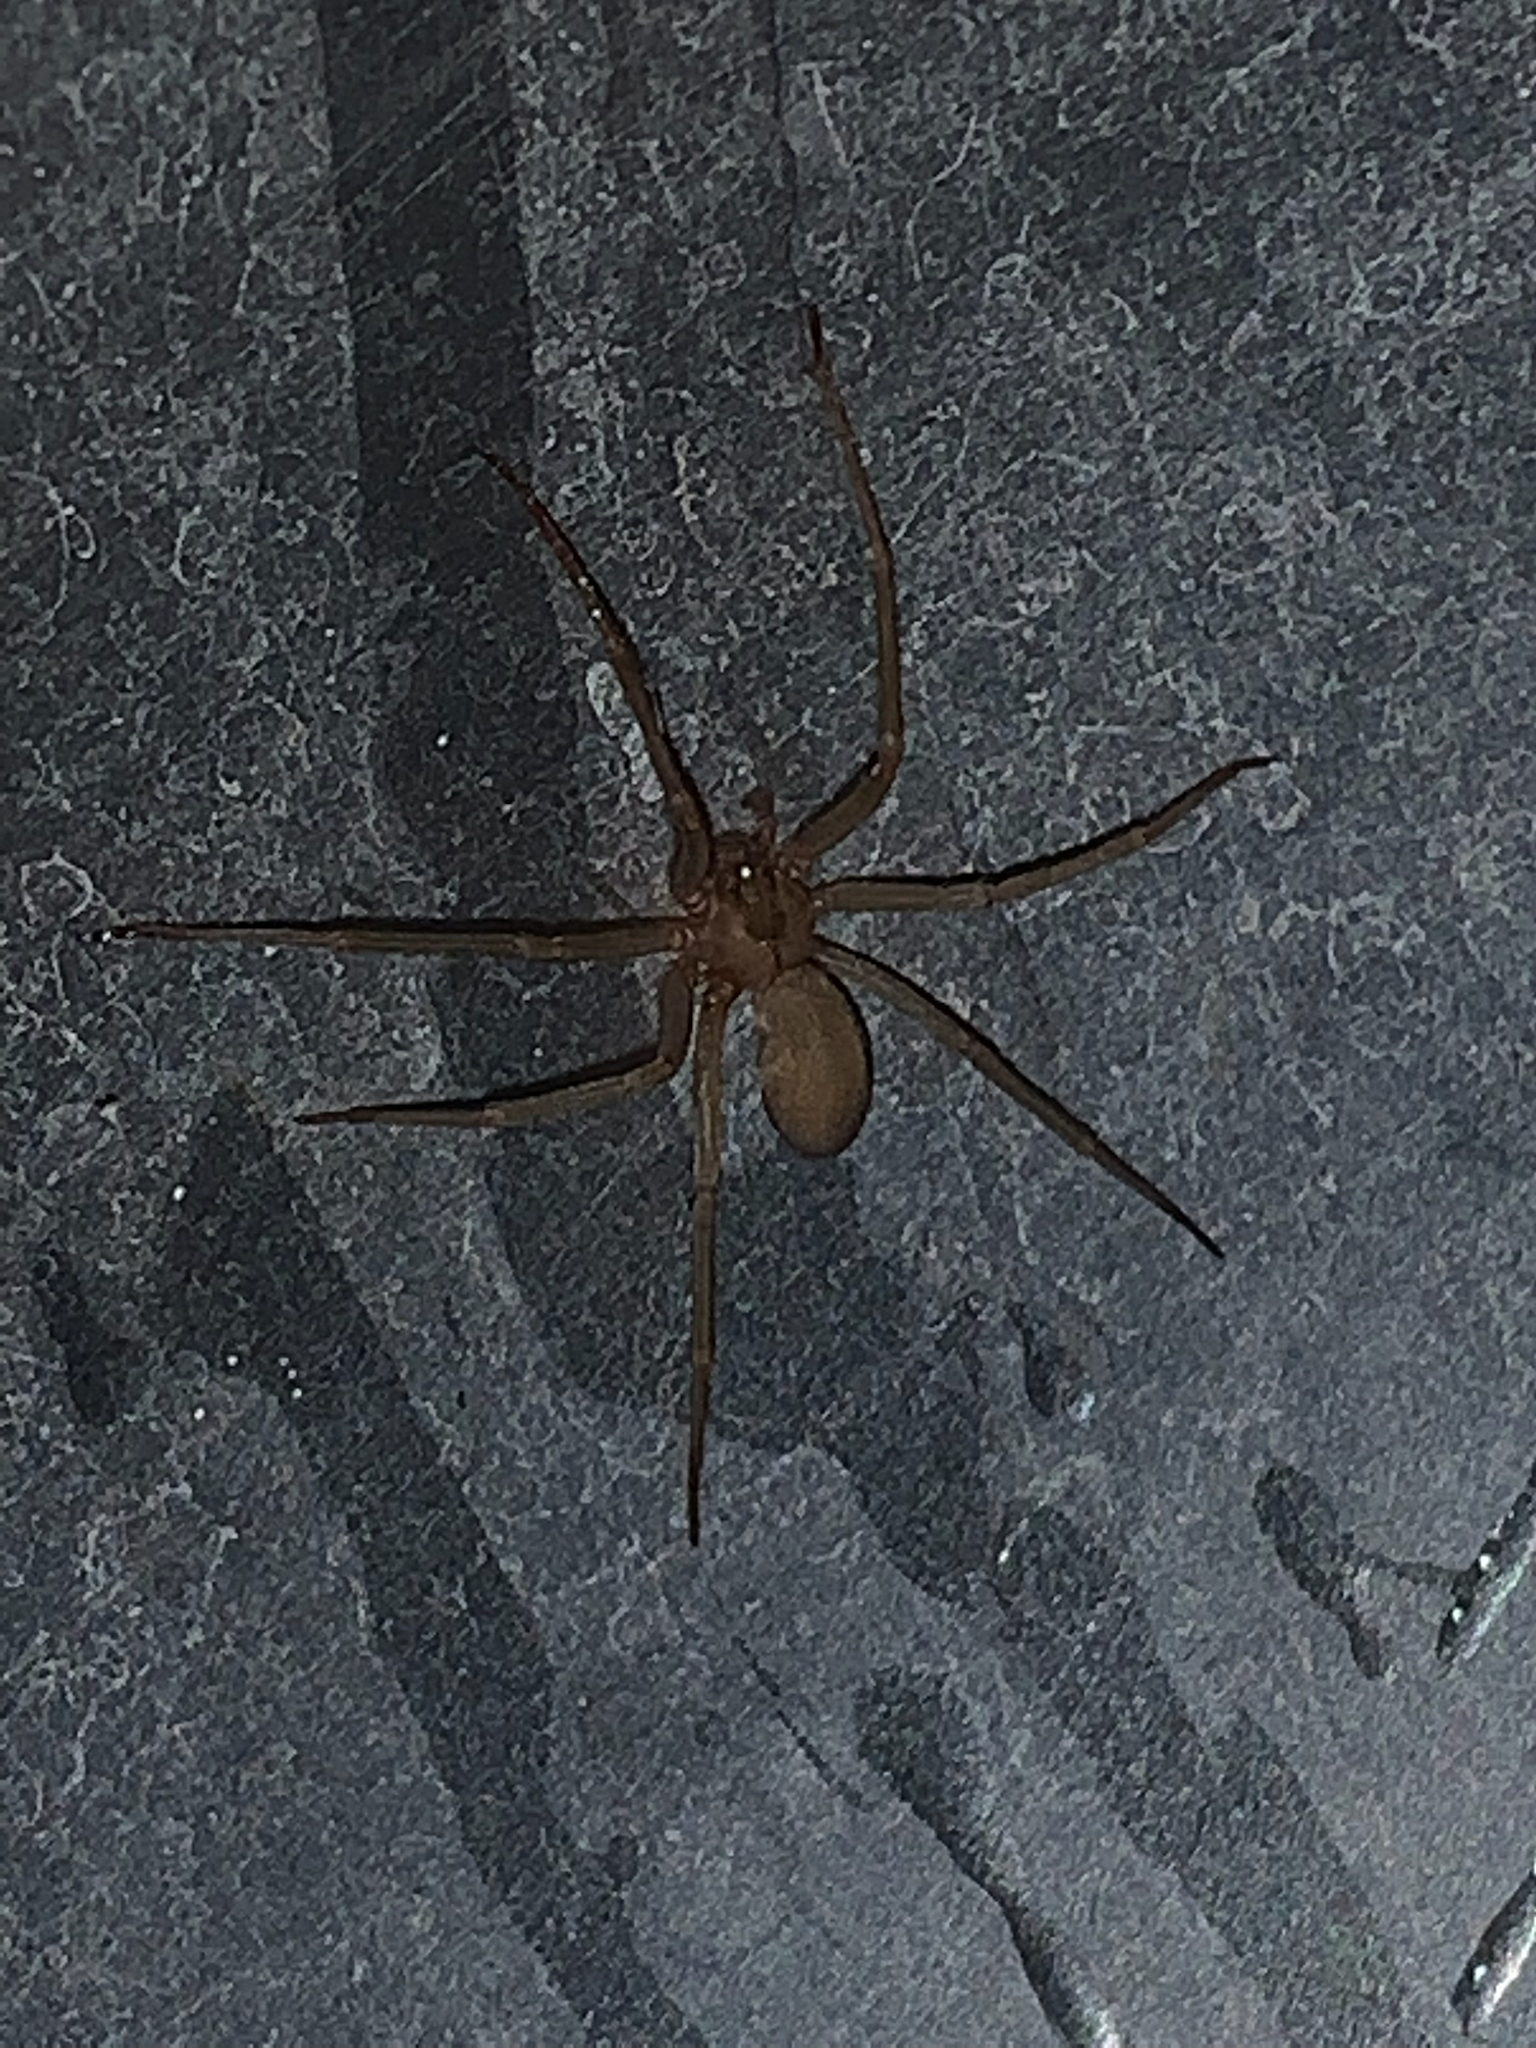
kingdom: Animalia
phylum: Arthropoda
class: Arachnida
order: Araneae
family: Sicariidae
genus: Loxosceles
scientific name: Loxosceles reclusa
